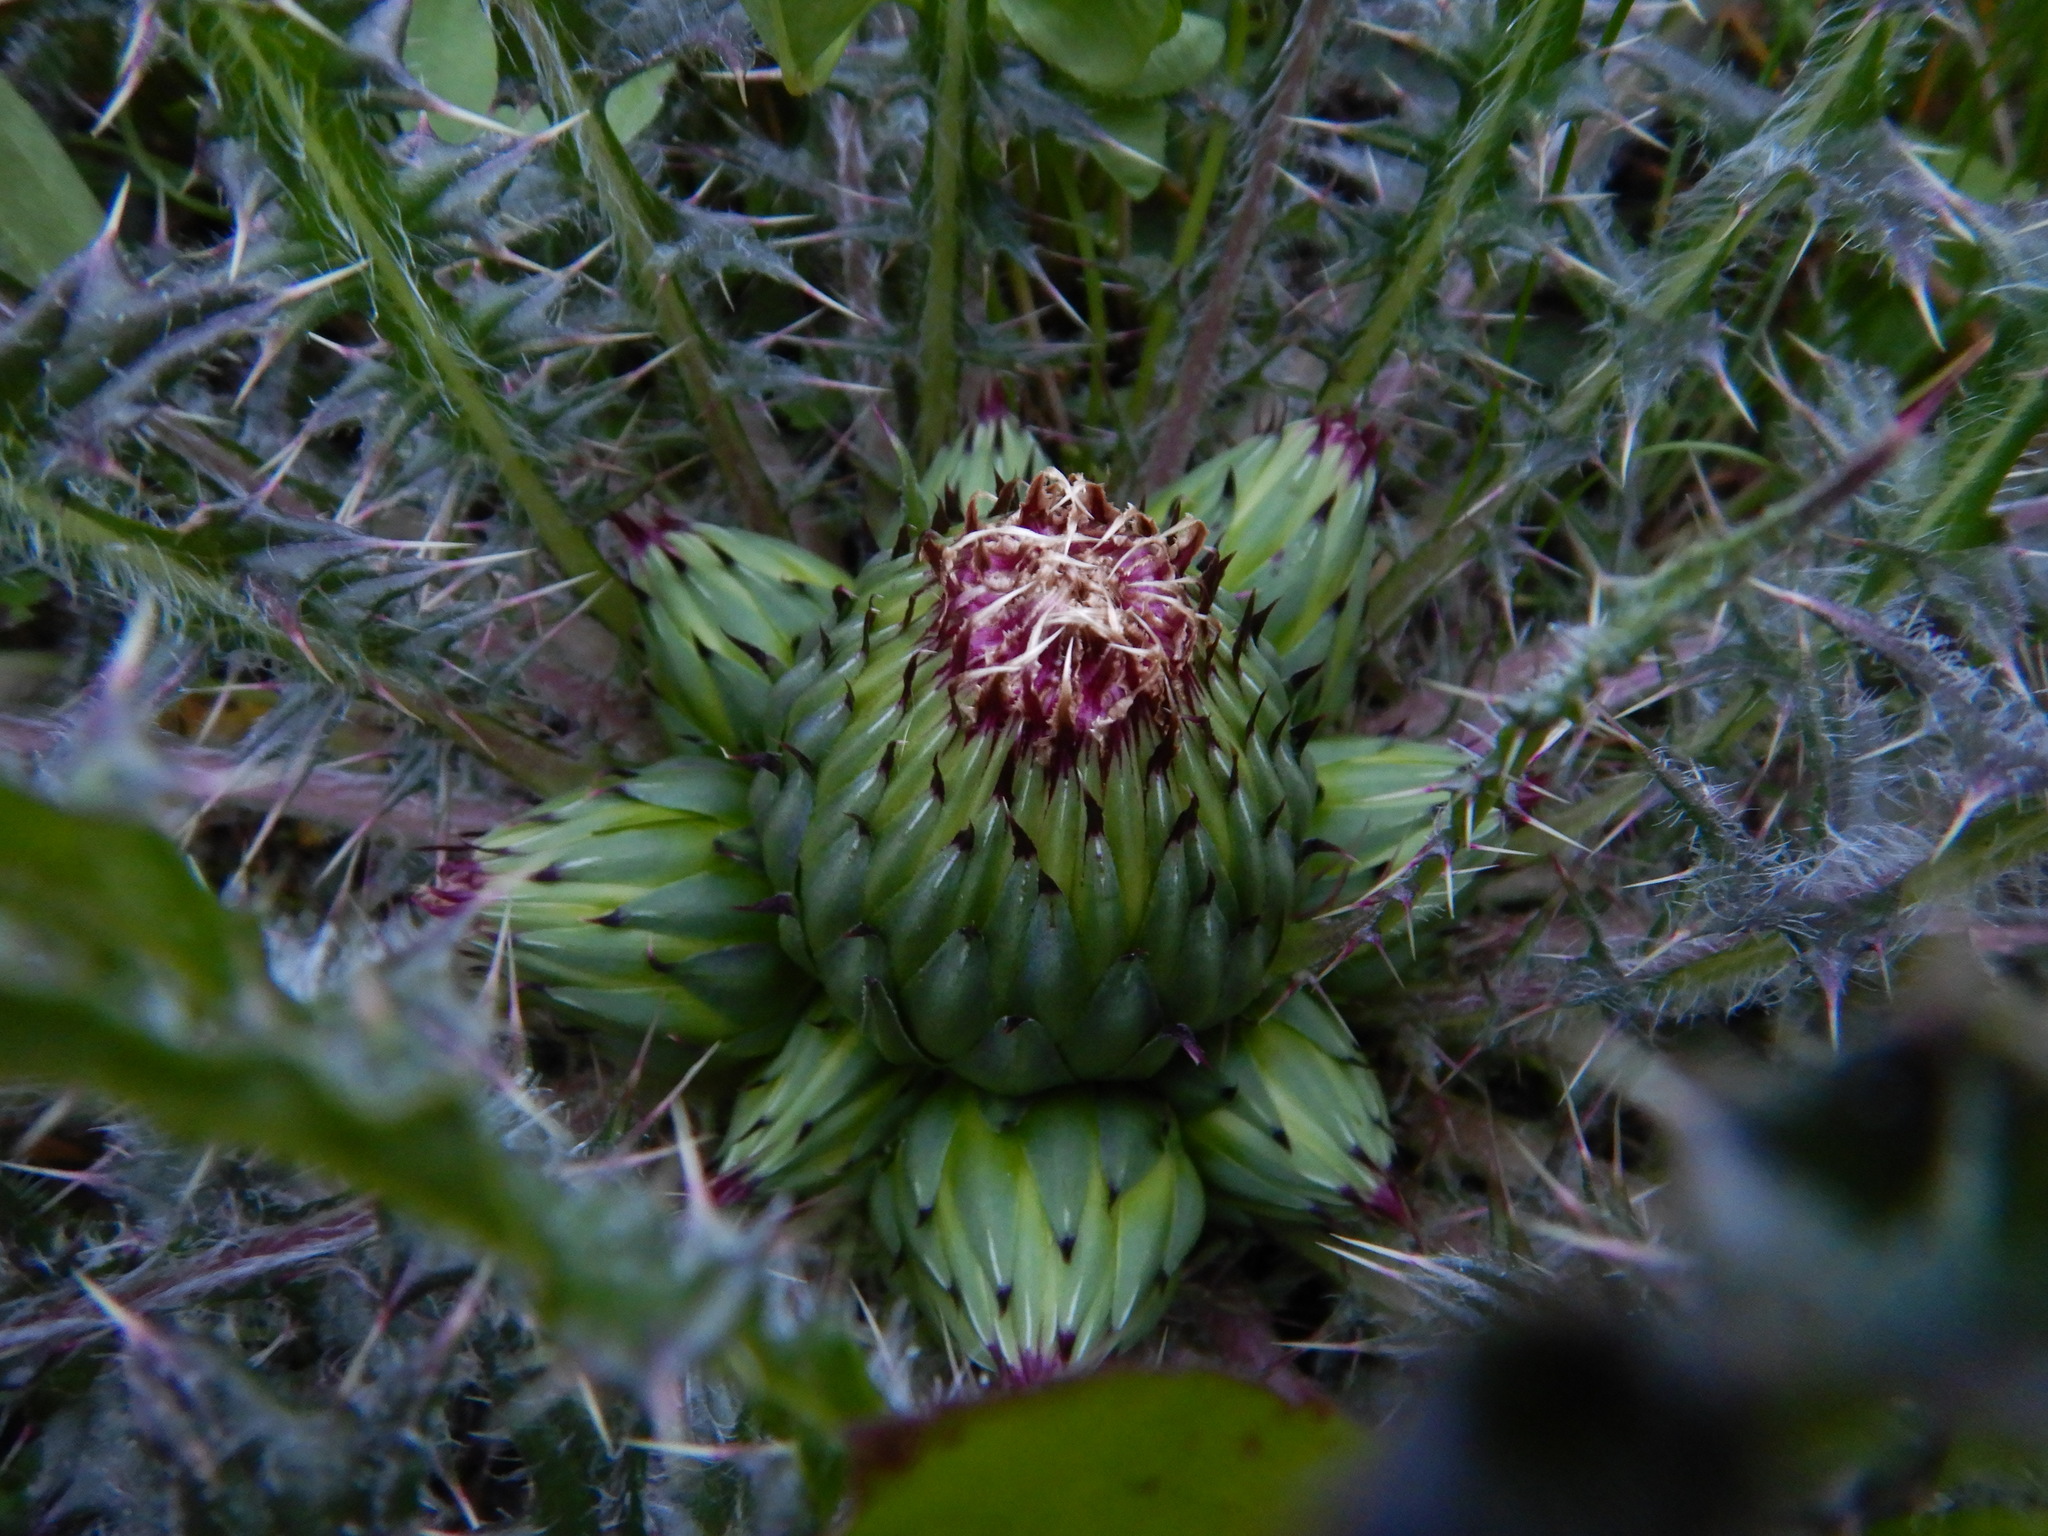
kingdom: Plantae
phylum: Tracheophyta
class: Magnoliopsida
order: Asterales
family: Asteraceae
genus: Cirsium
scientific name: Cirsium drummondii
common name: Drummond's thistle
